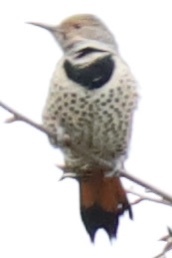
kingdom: Animalia
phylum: Chordata
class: Aves
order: Piciformes
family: Picidae
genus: Colaptes
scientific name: Colaptes auratus
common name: Northern flicker
